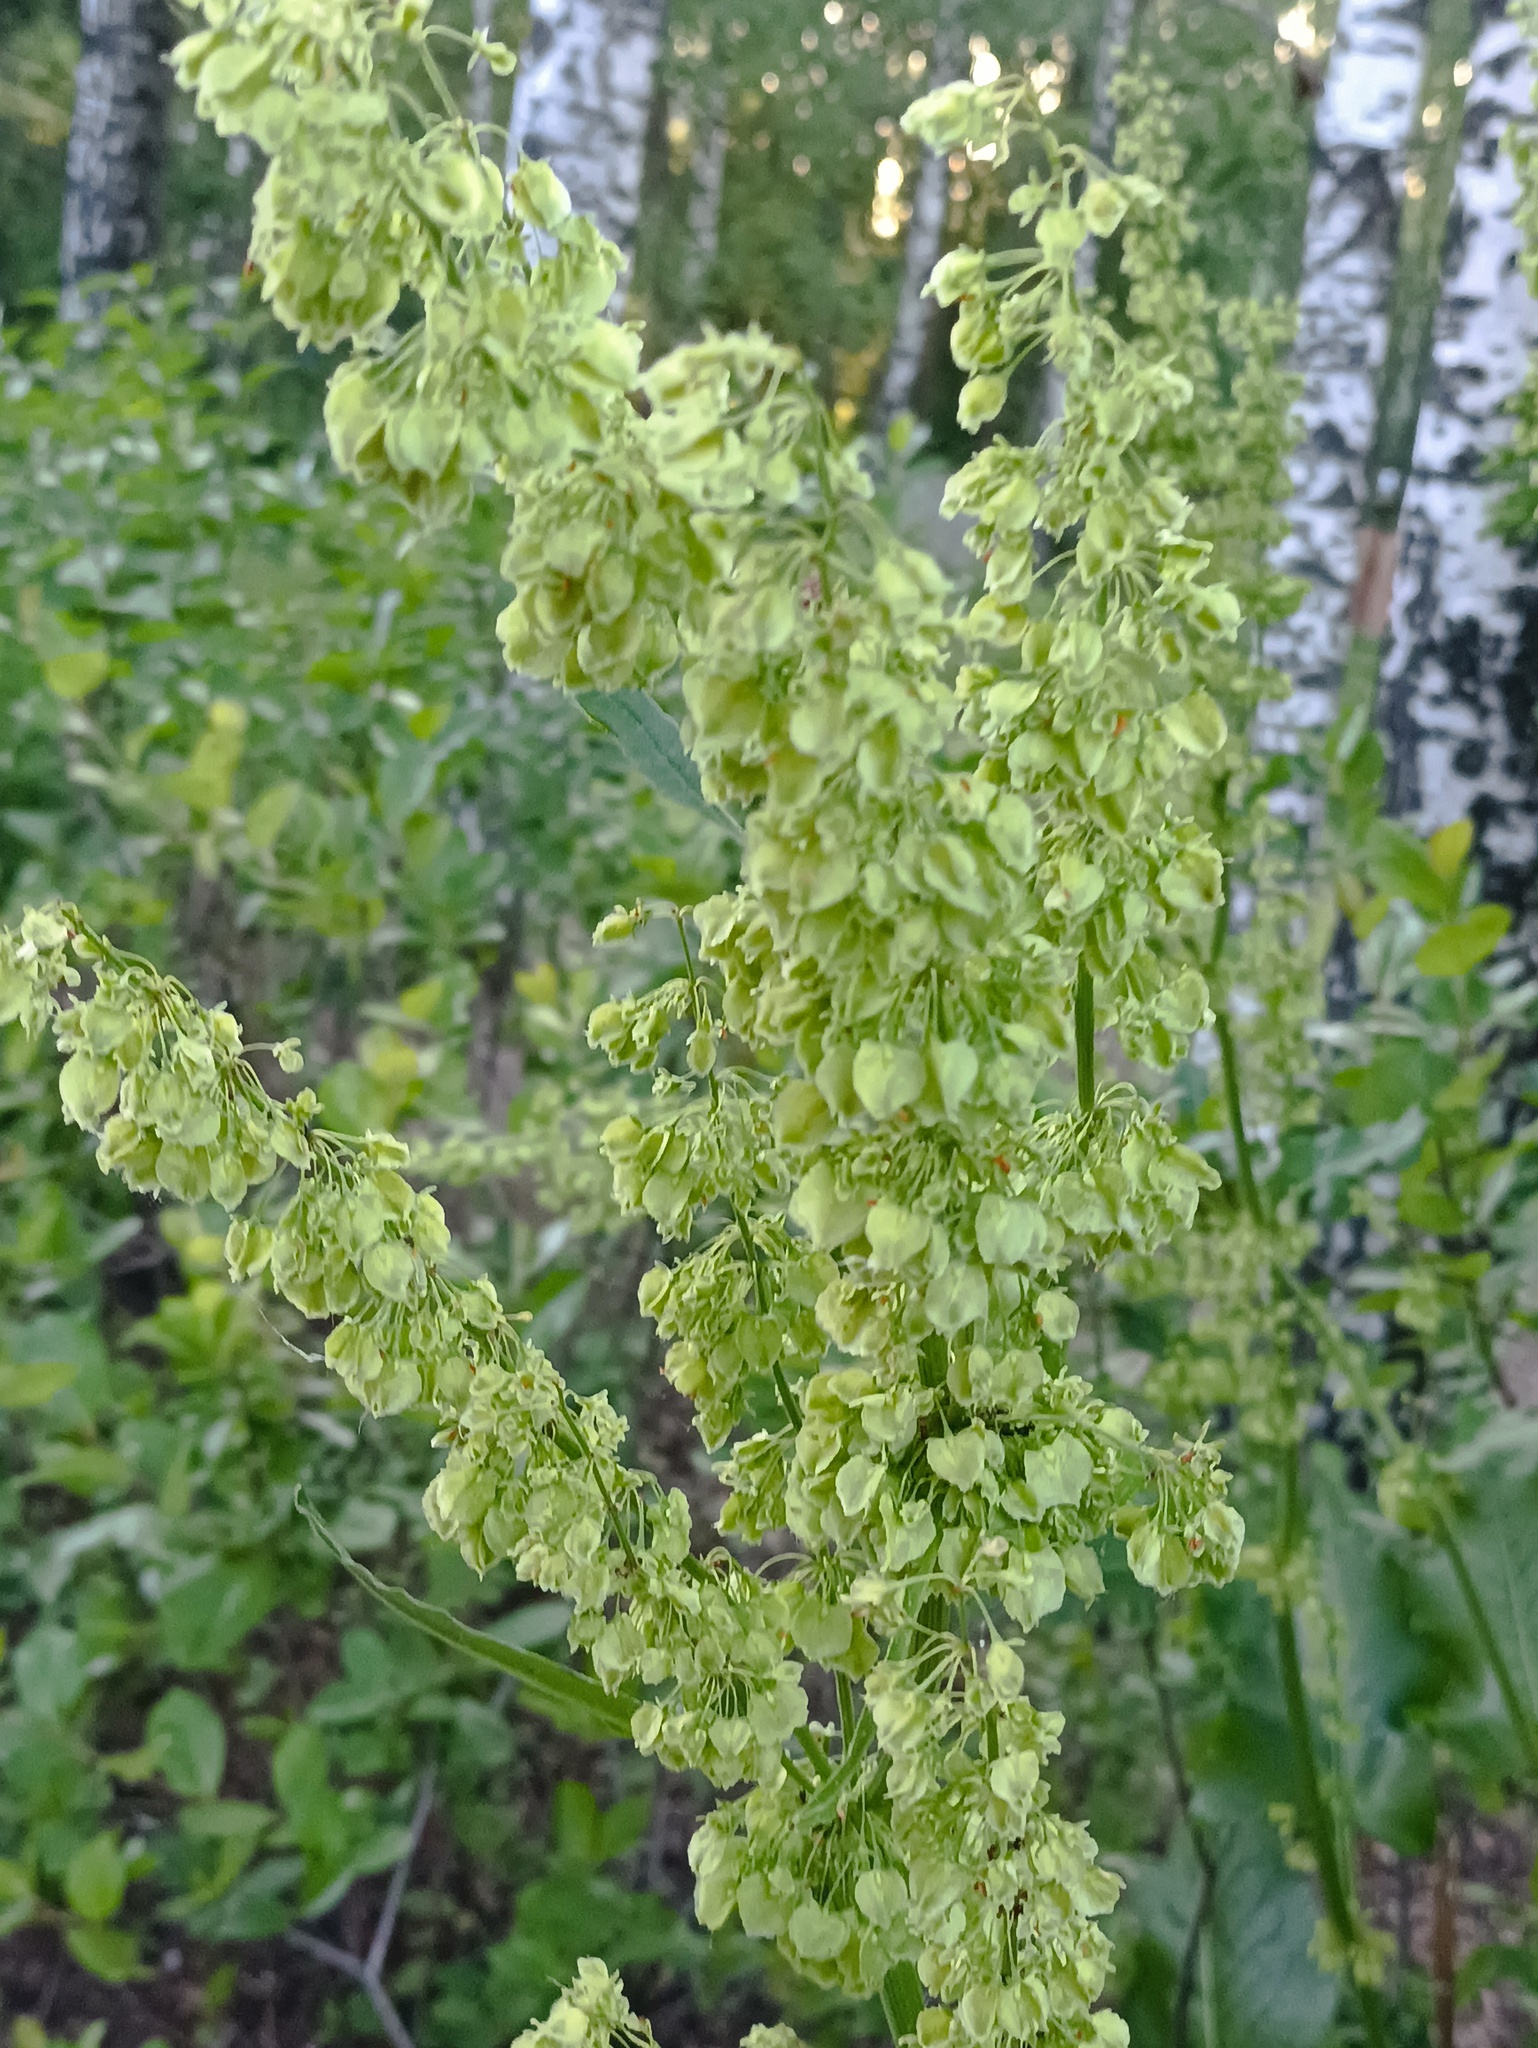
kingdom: Plantae
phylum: Tracheophyta
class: Magnoliopsida
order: Caryophyllales
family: Polygonaceae
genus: Rumex
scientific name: Rumex confertus
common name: Russian dock
